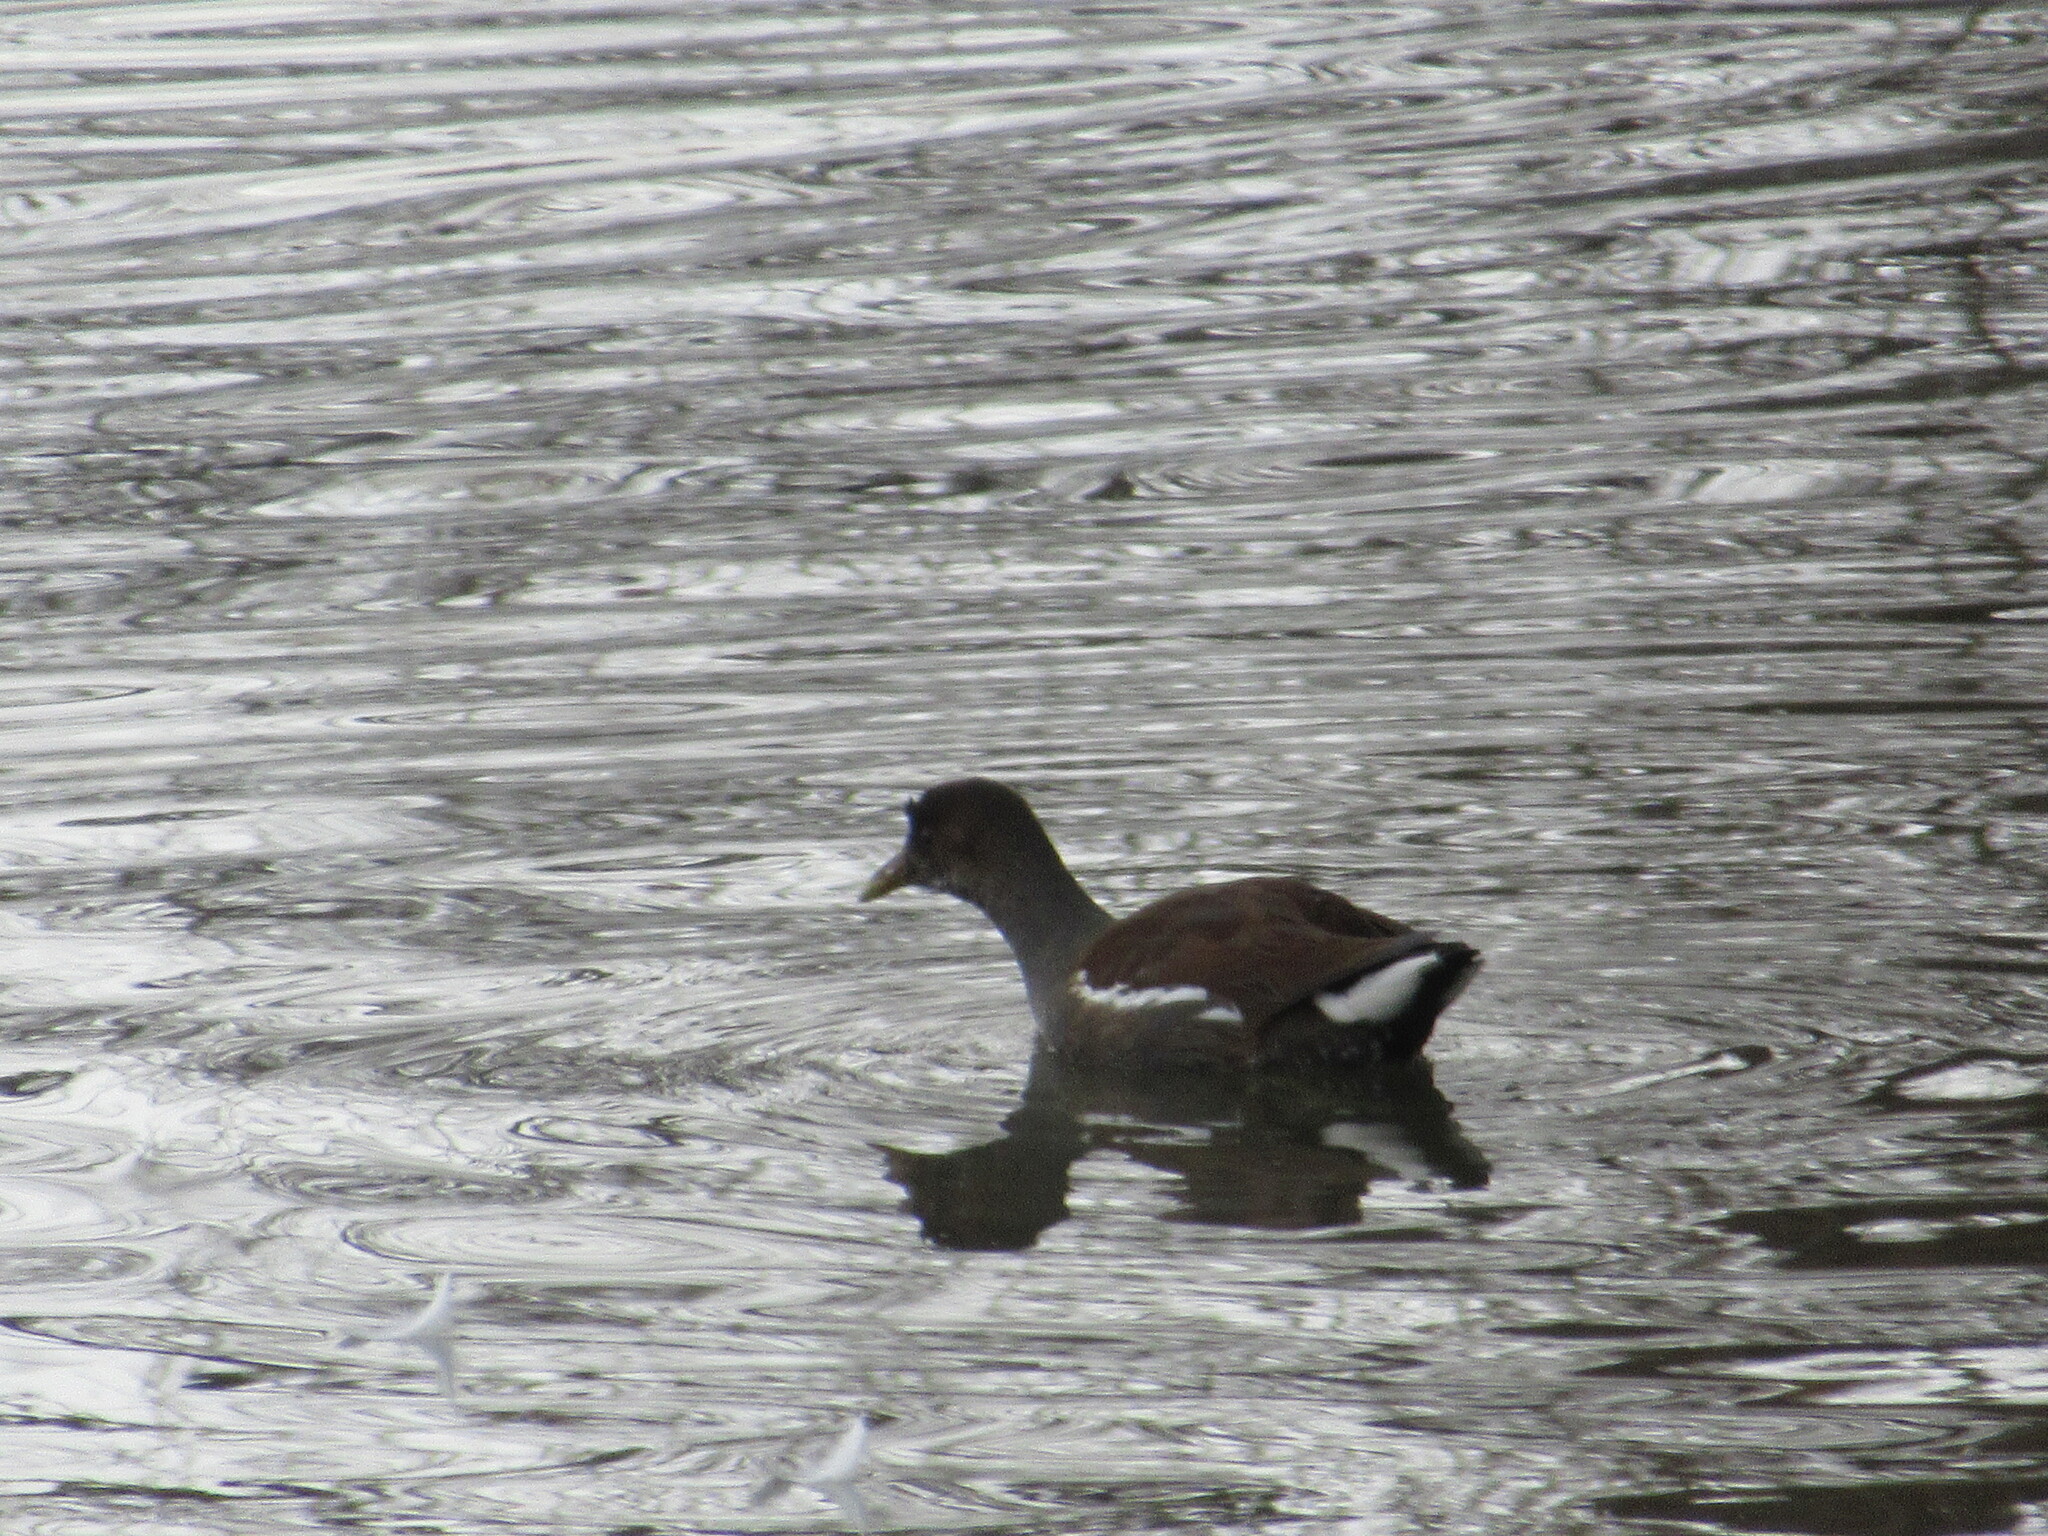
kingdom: Animalia
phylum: Chordata
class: Aves
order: Gruiformes
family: Rallidae
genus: Gallinula
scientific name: Gallinula chloropus
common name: Common moorhen
